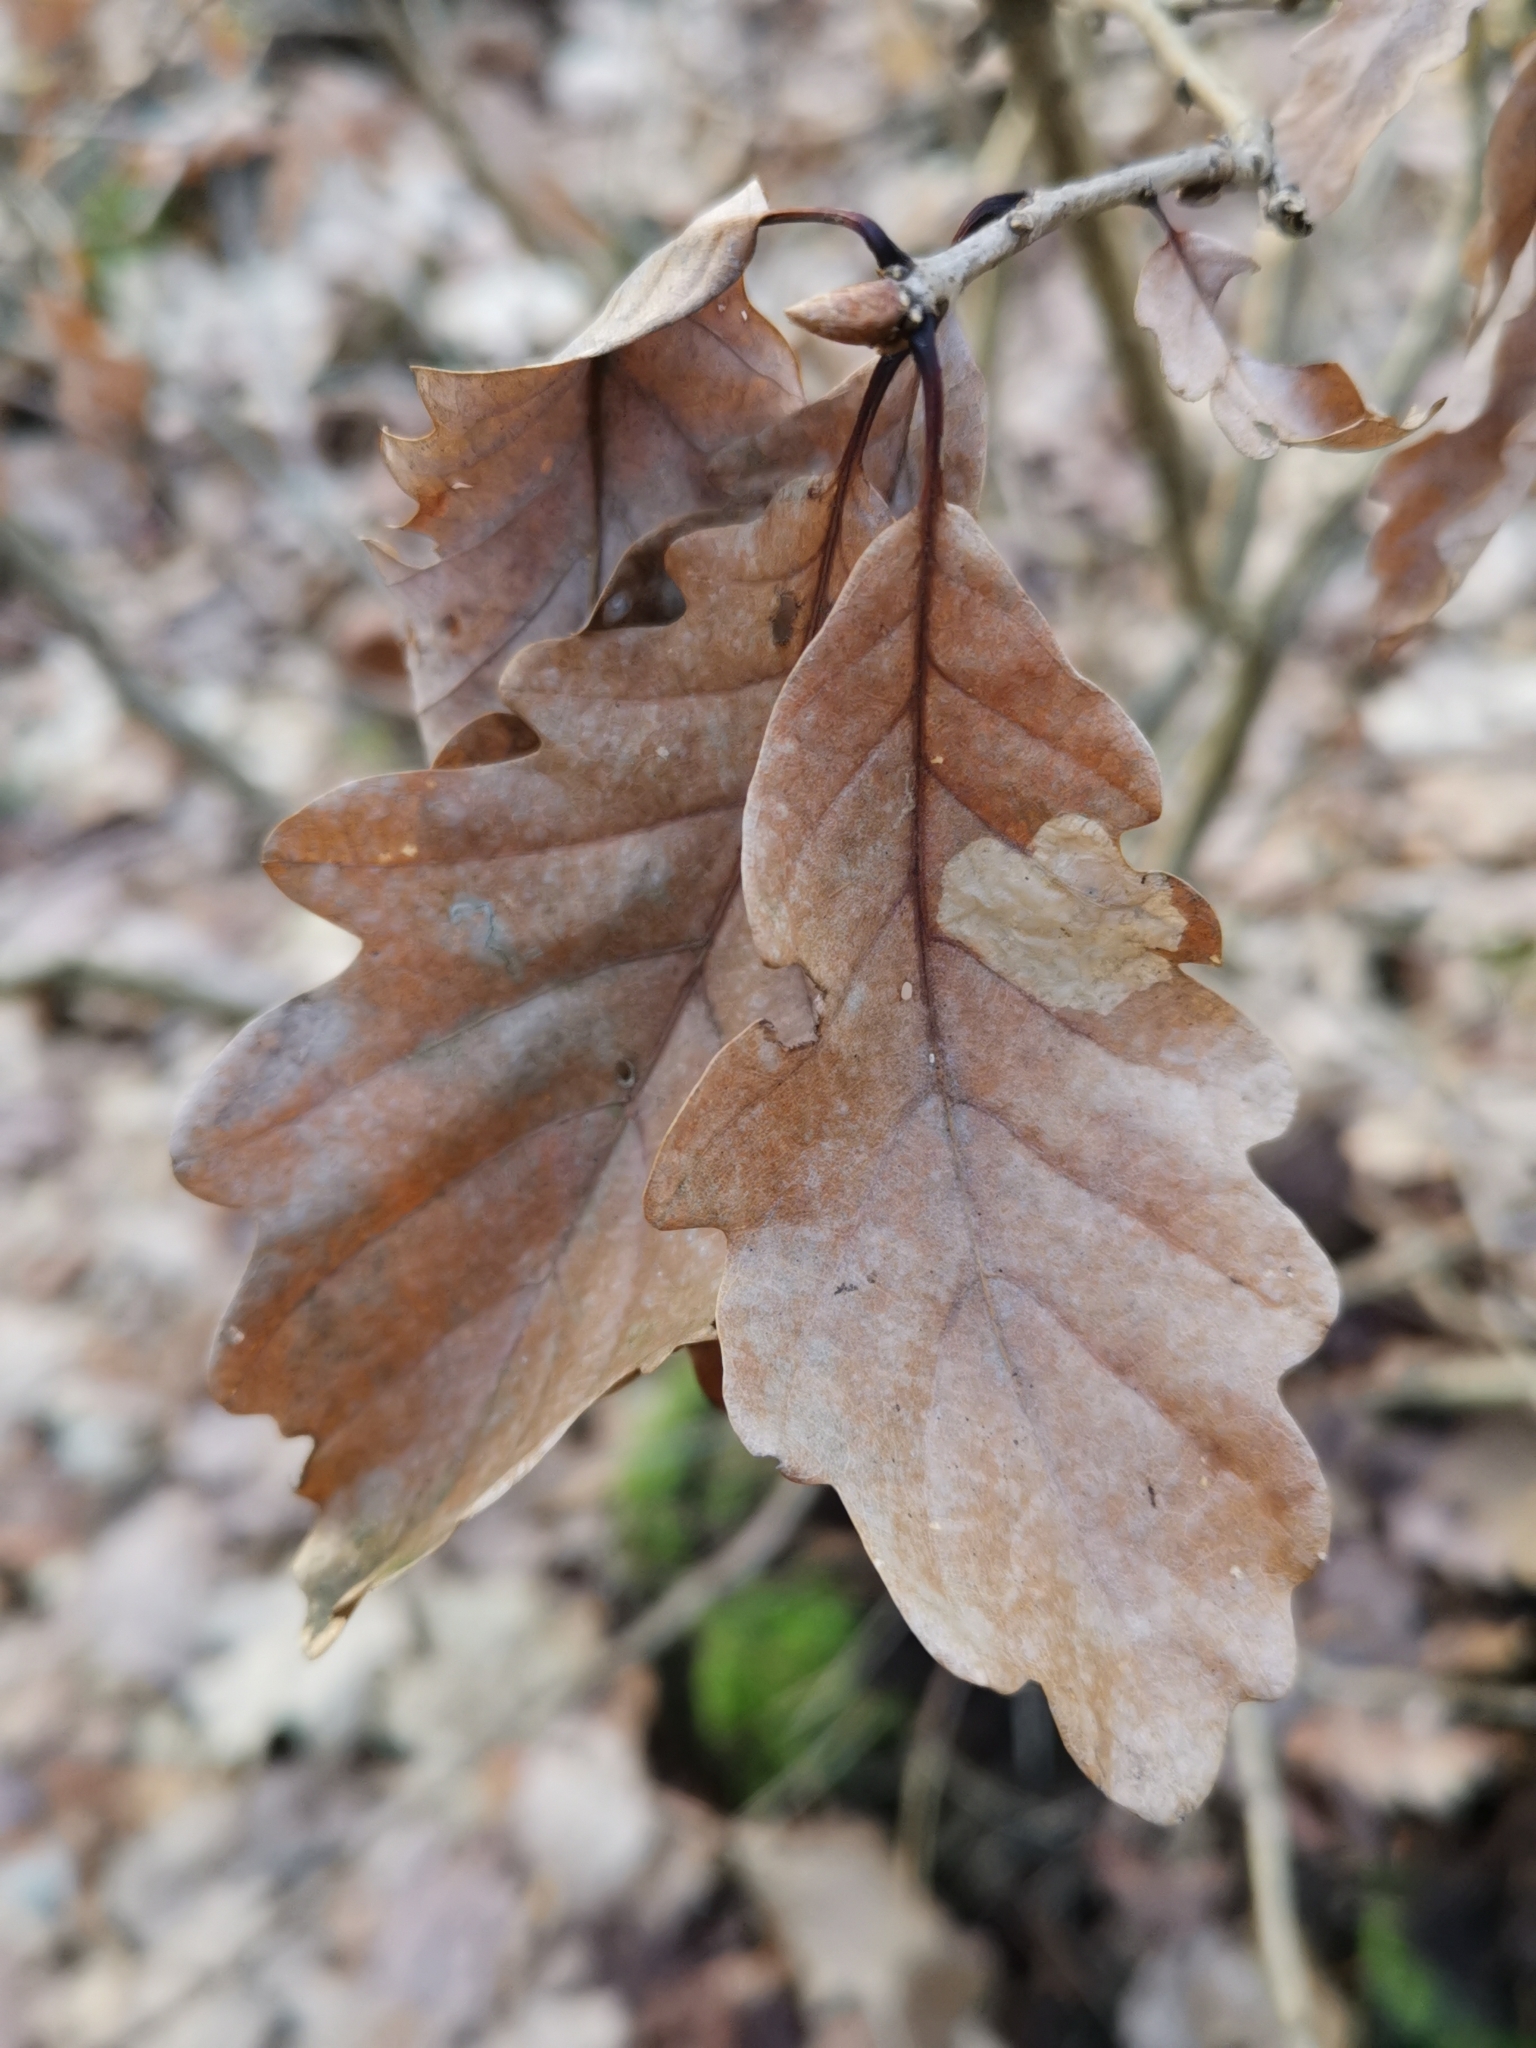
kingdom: Plantae
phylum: Tracheophyta
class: Magnoliopsida
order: Fagales
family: Fagaceae
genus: Quercus
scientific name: Quercus petraea
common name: Sessile oak
